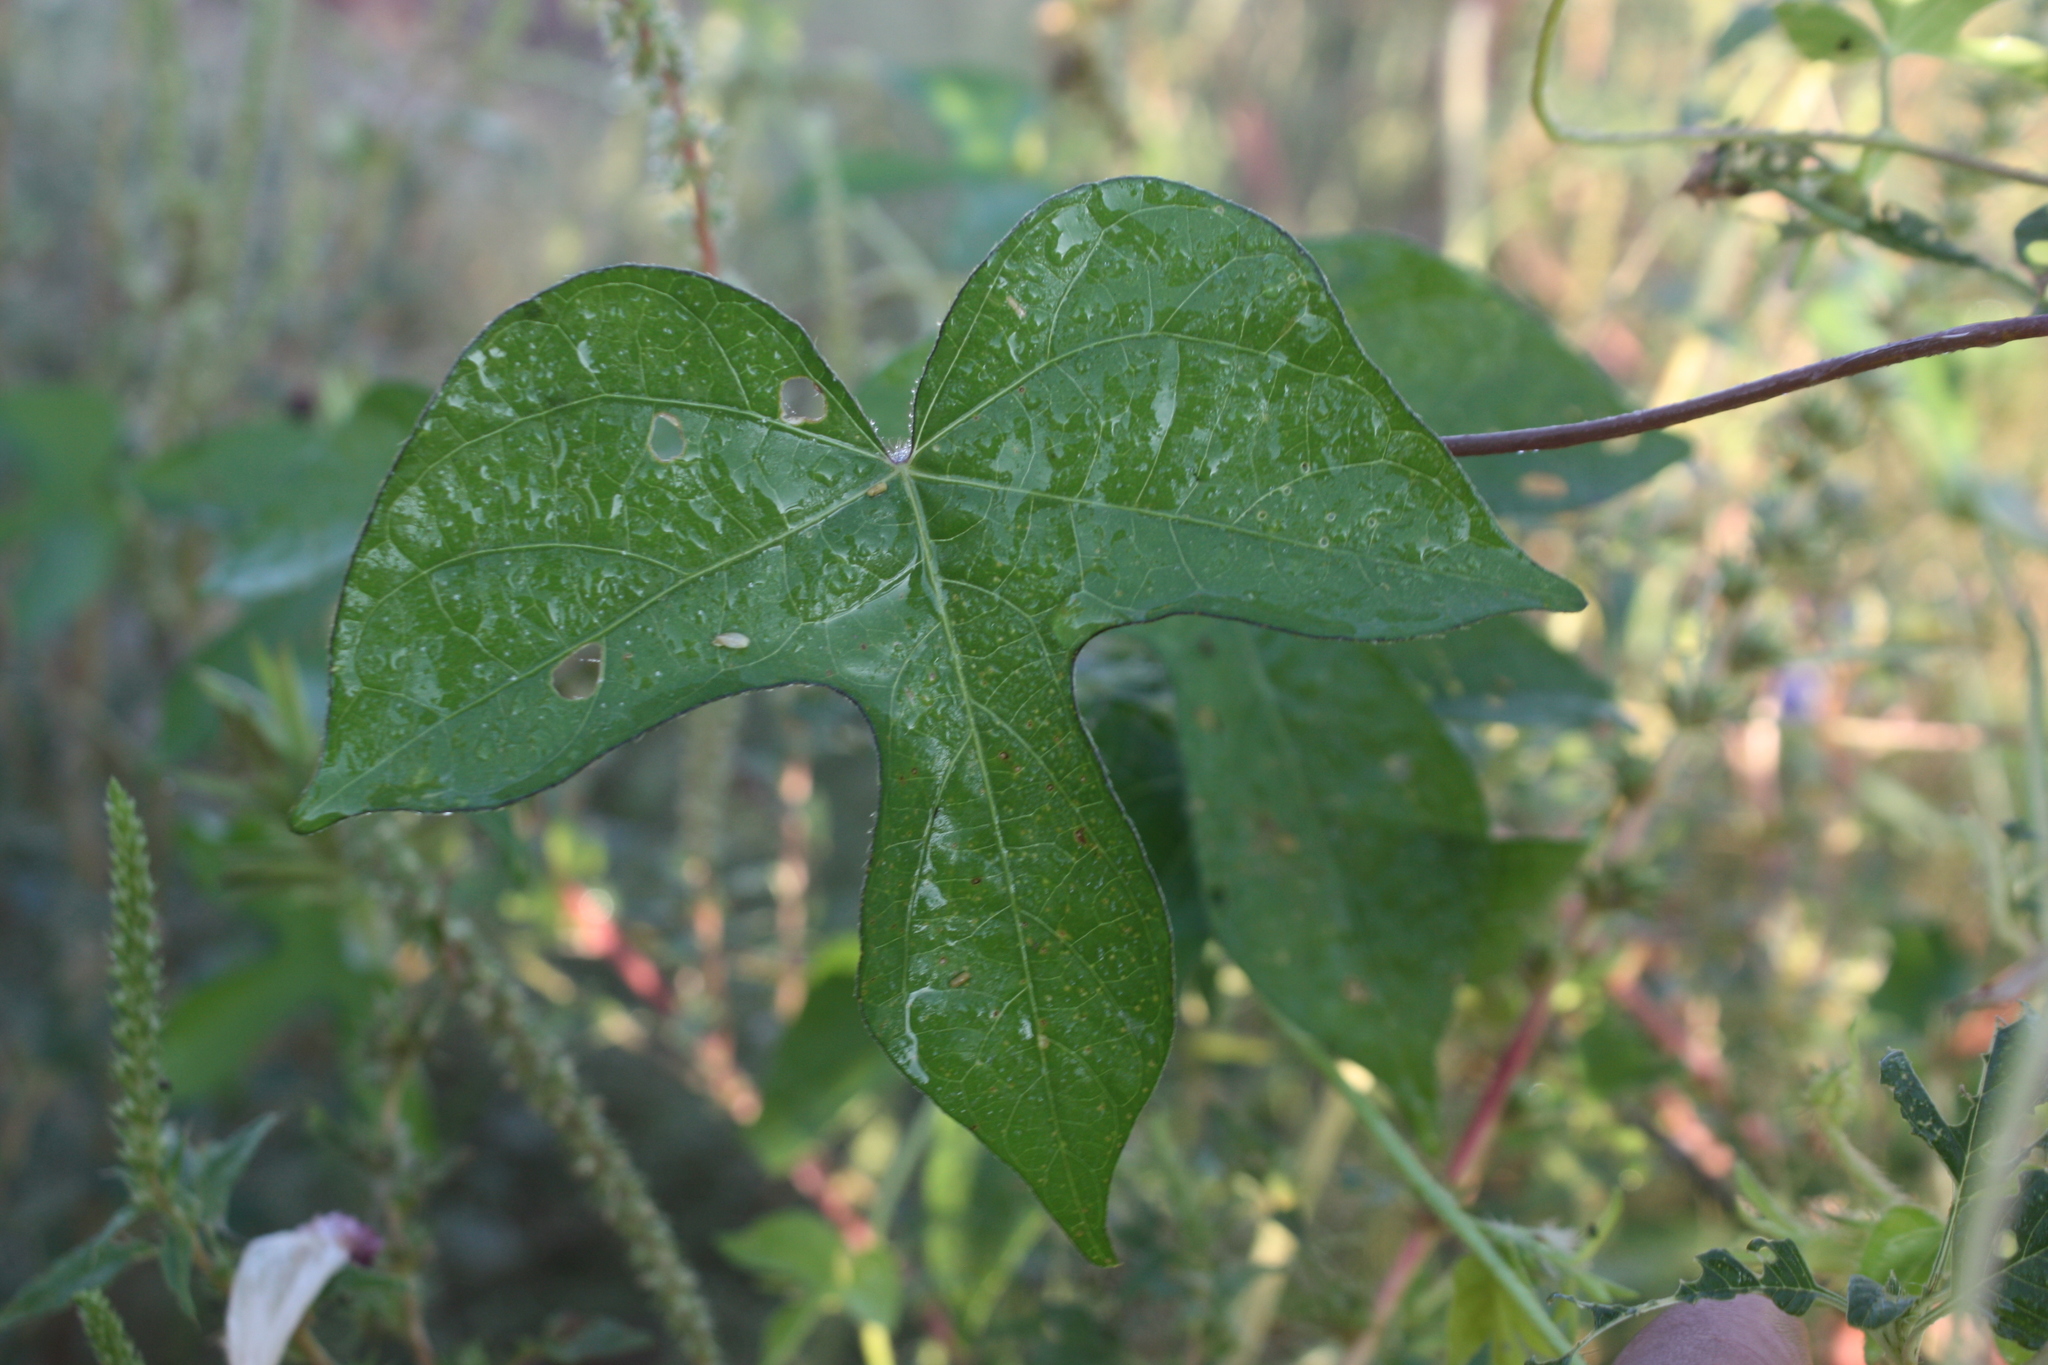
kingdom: Plantae
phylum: Tracheophyta
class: Magnoliopsida
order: Solanales
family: Convolvulaceae
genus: Ipomoea
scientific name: Ipomoea nil
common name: Japanese morning-glory
